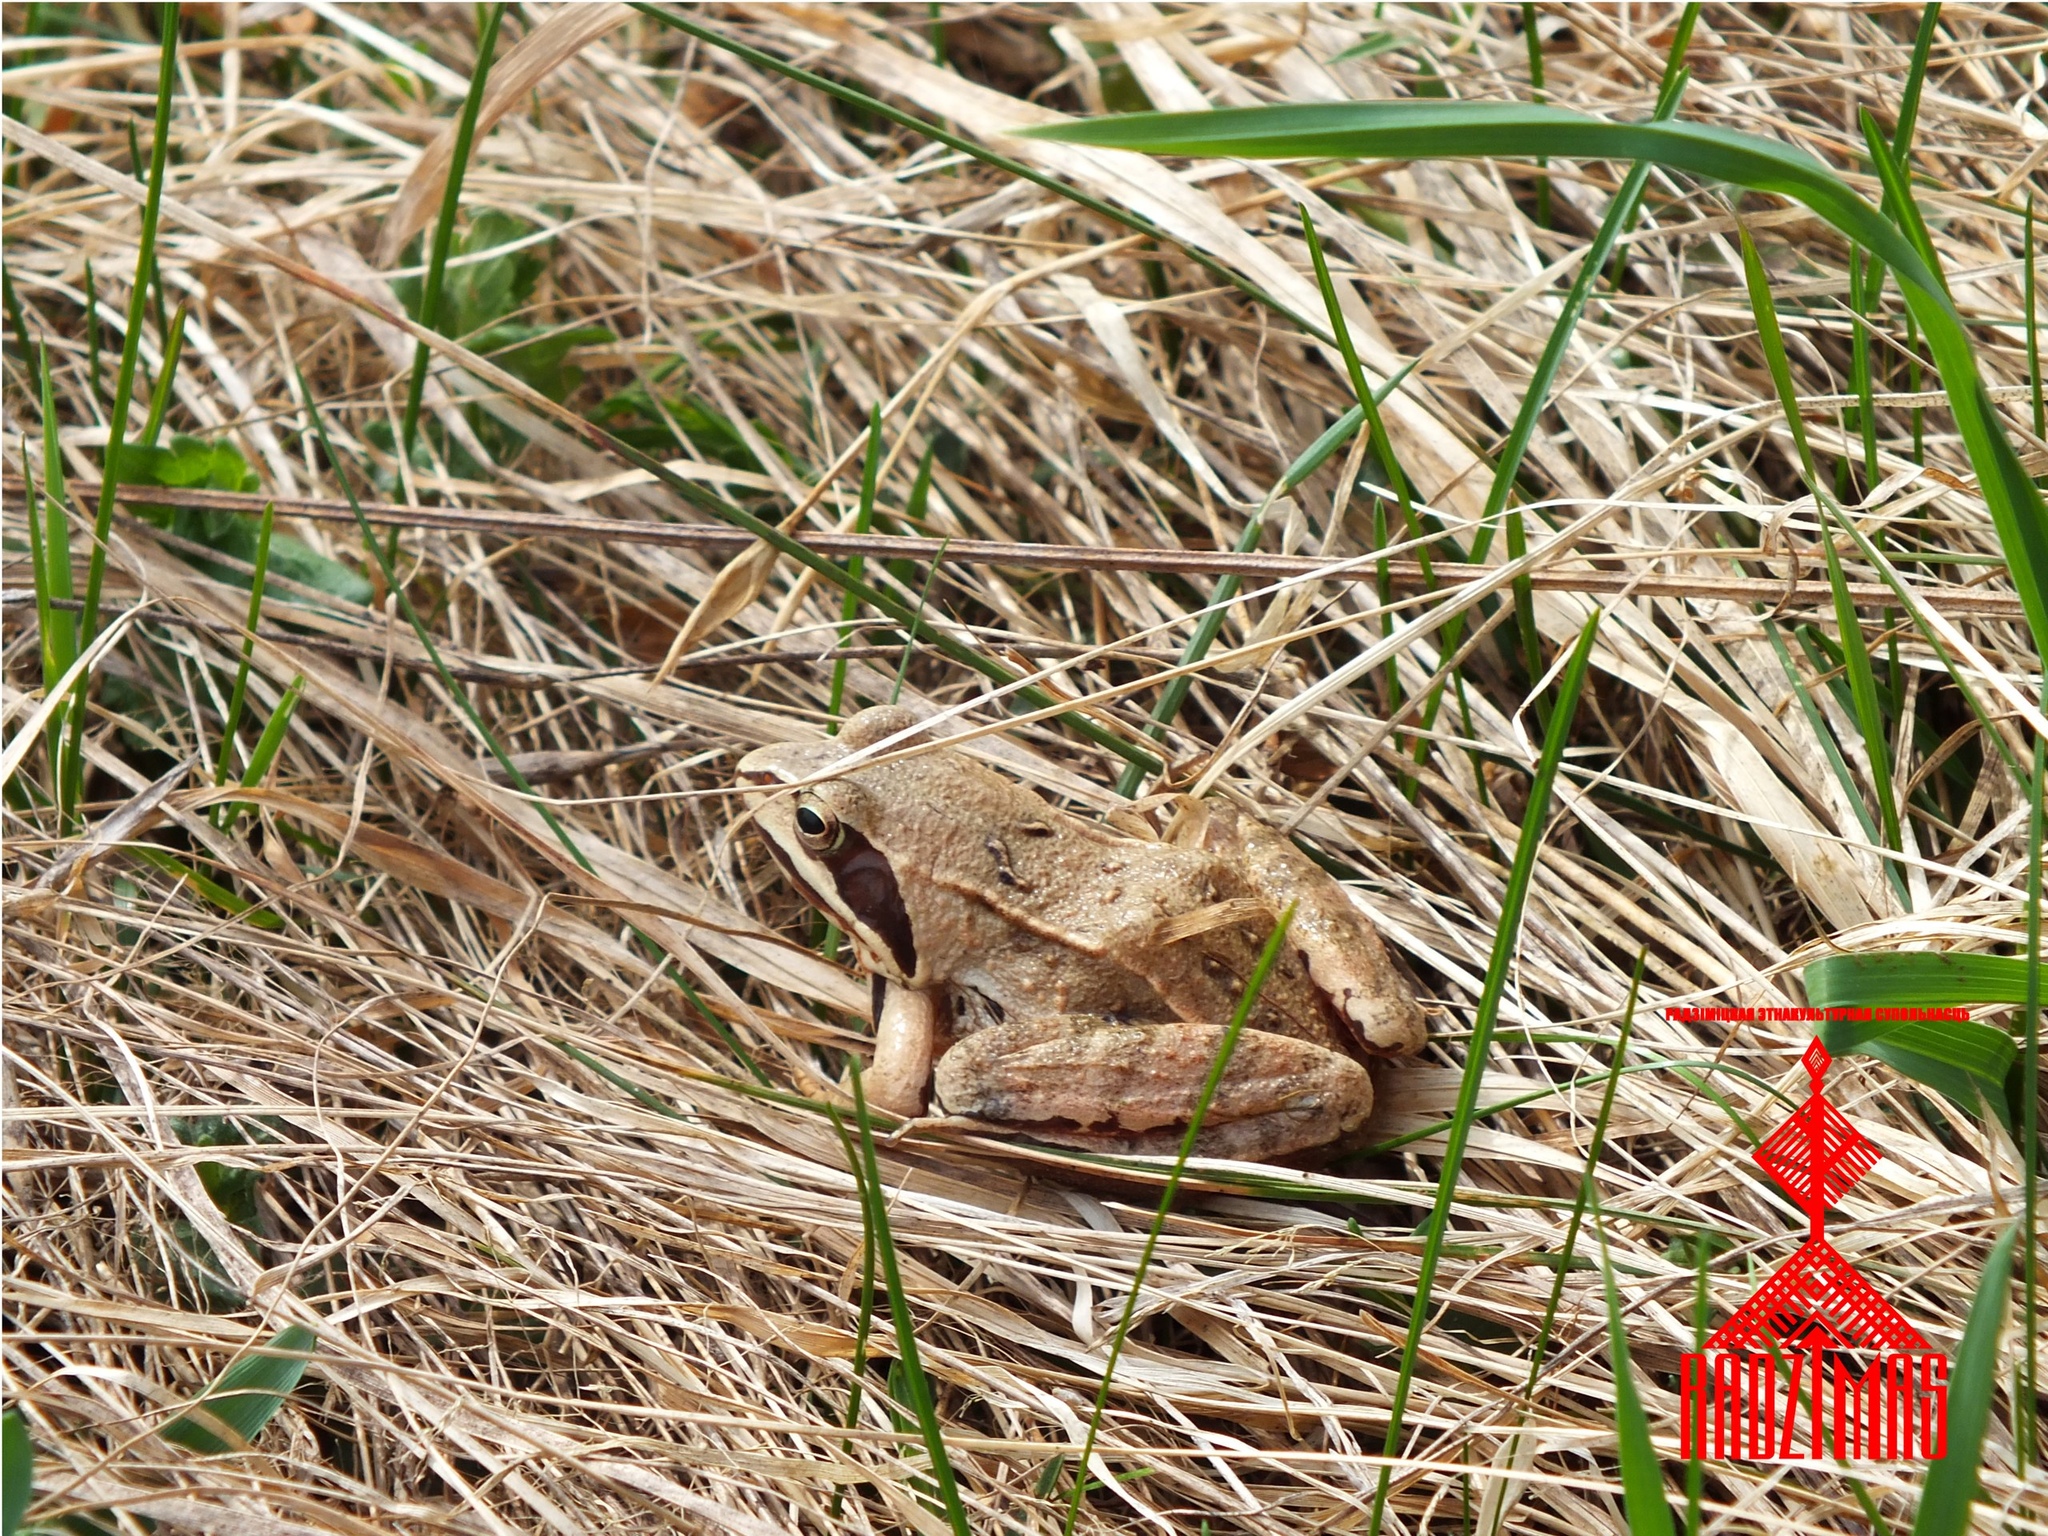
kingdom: Animalia
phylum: Chordata
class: Amphibia
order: Anura
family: Ranidae
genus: Rana
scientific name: Rana arvalis
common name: Moor frog
